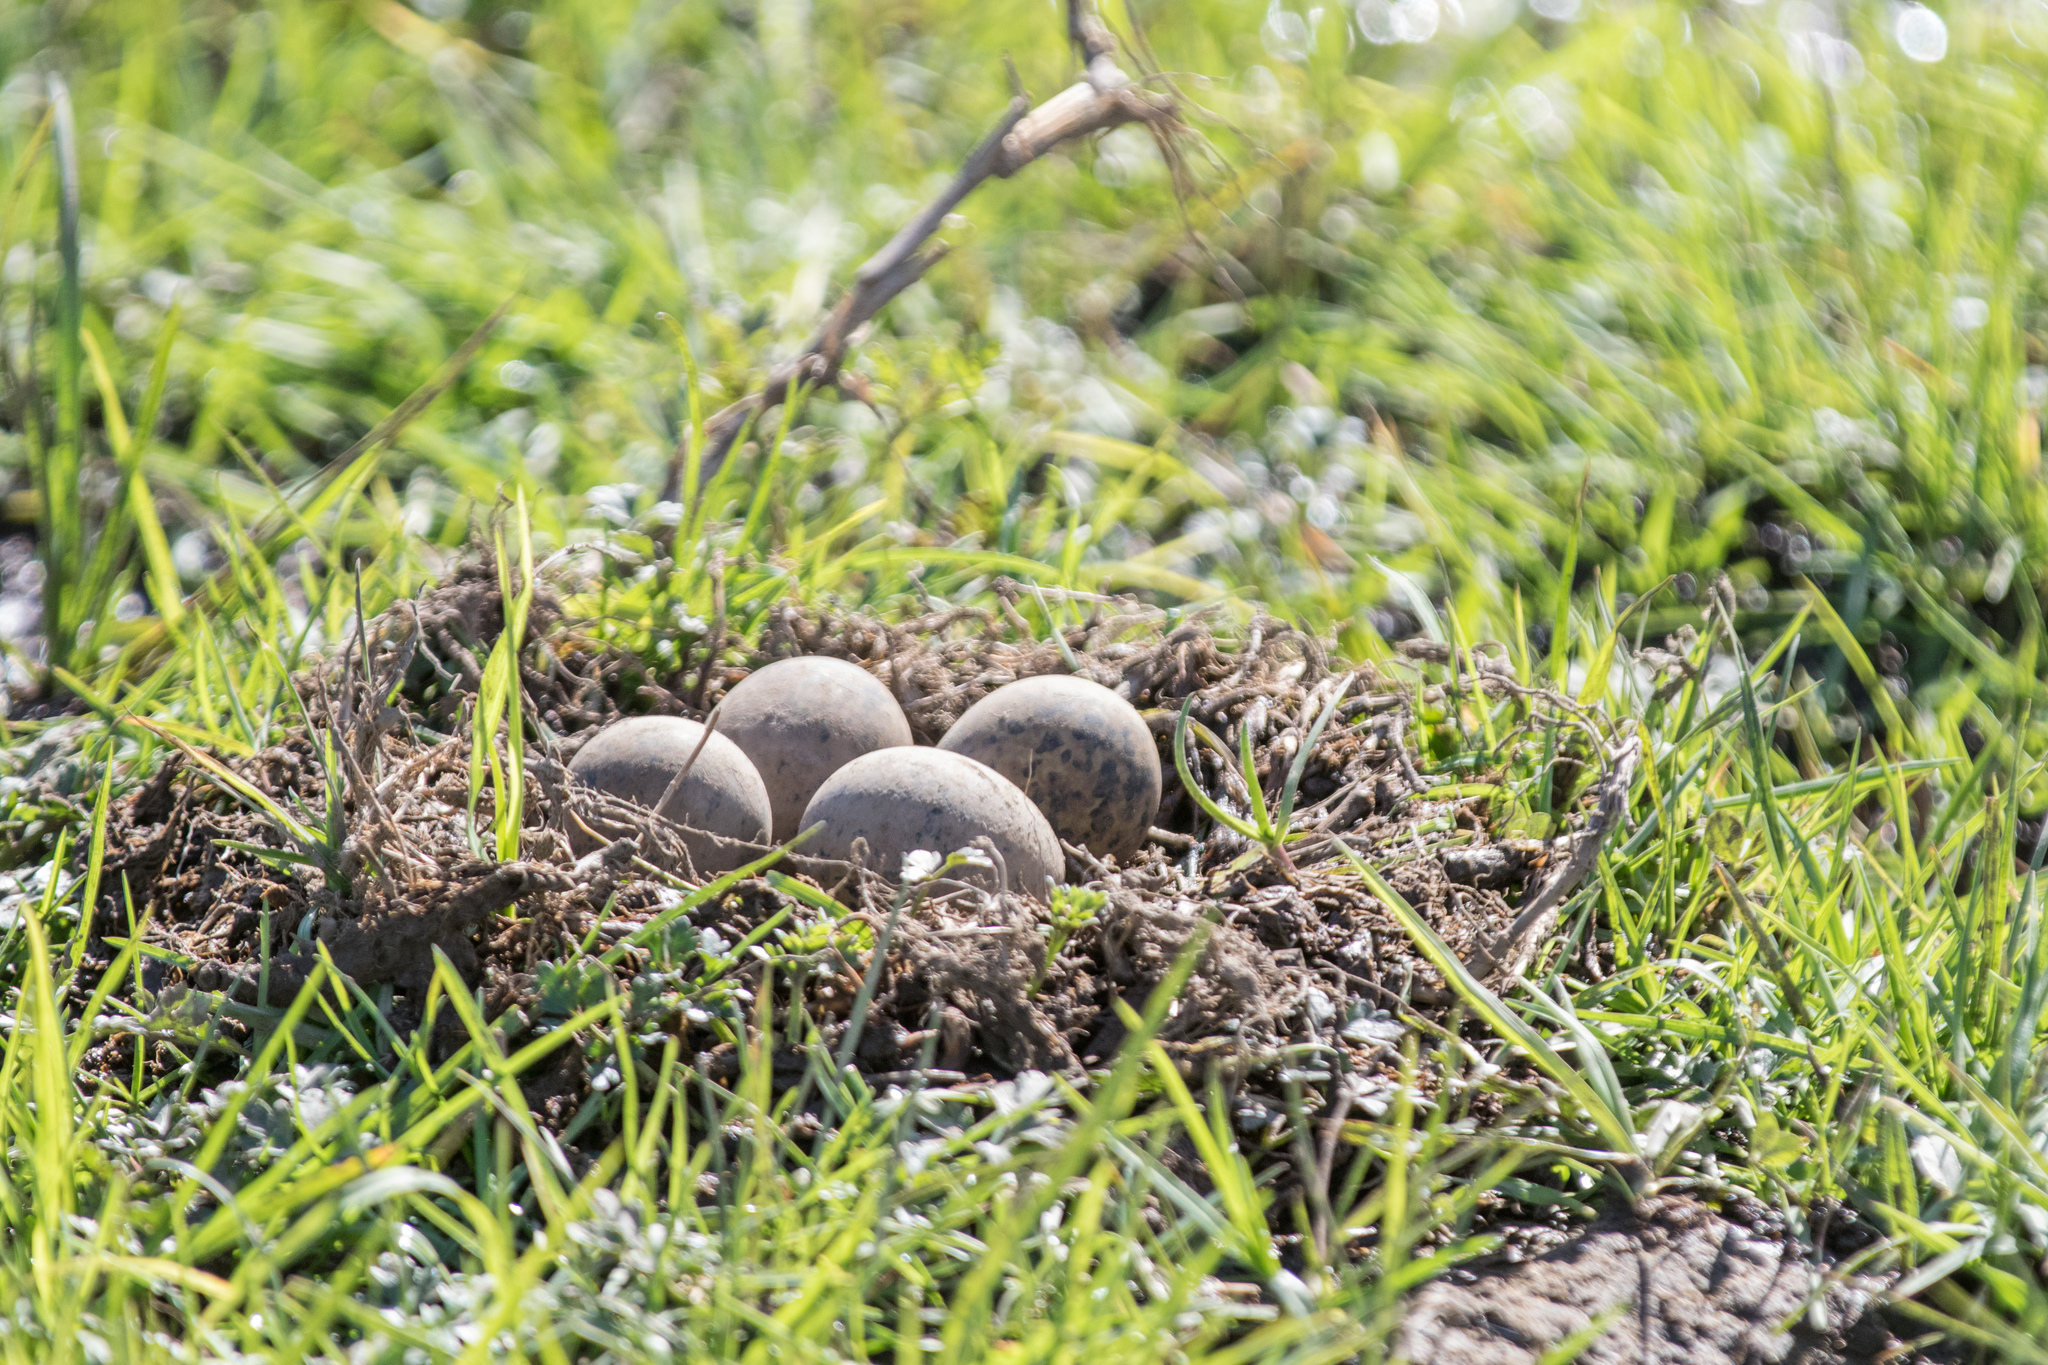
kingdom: Animalia
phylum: Chordata
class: Aves
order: Charadriiformes
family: Recurvirostridae
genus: Himantopus
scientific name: Himantopus leucocephalus
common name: White-headed stilt
